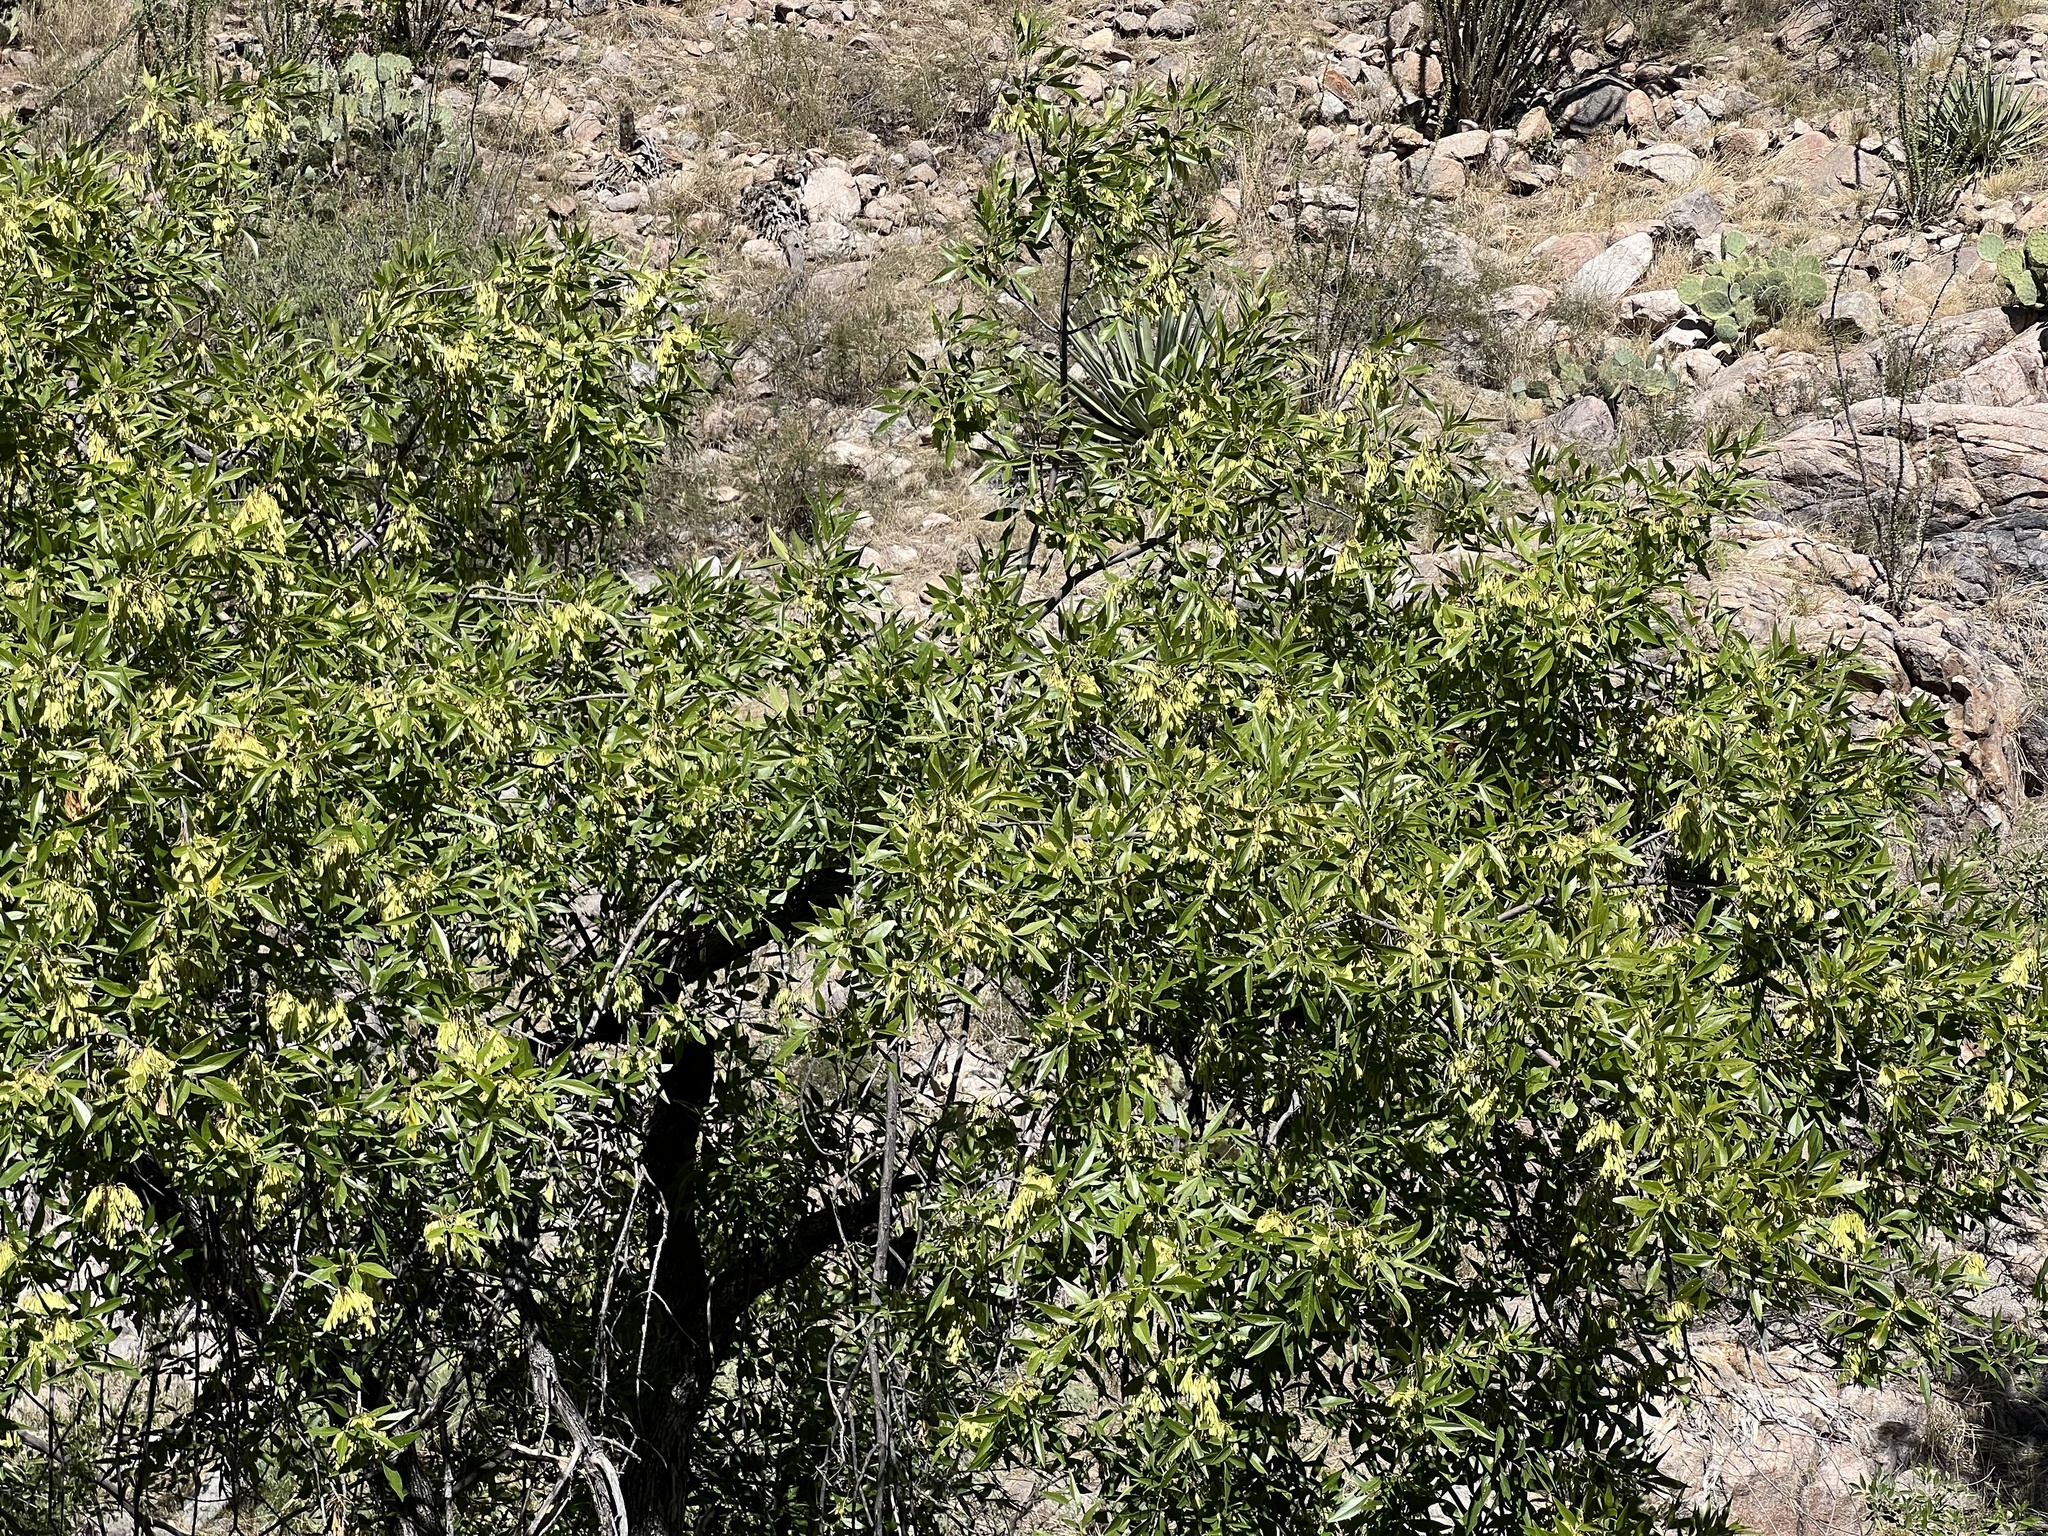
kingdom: Plantae
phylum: Tracheophyta
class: Magnoliopsida
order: Lamiales
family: Oleaceae
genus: Fraxinus
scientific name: Fraxinus velutina
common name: Arizon ash
